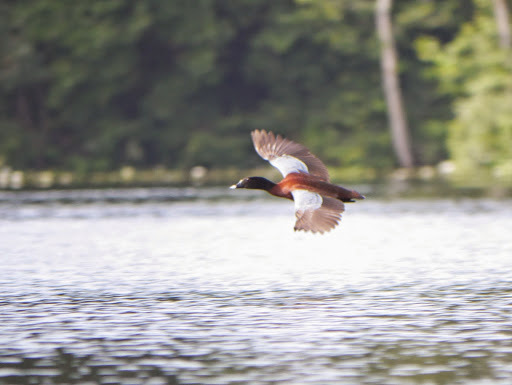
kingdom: Animalia
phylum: Chordata
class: Aves
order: Anseriformes
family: Anatidae
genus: Pteronetta
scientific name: Pteronetta hartlaubii
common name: Hartlaub's duck
